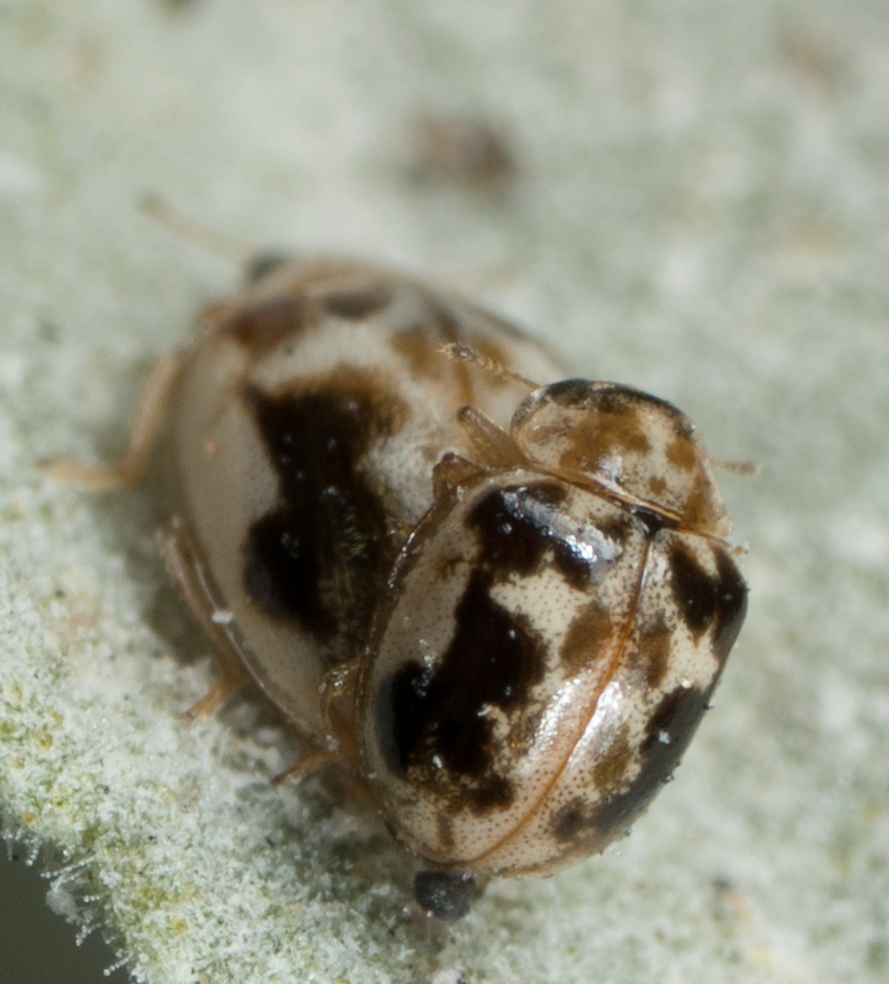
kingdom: Animalia
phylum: Arthropoda
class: Insecta
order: Coleoptera
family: Coccinellidae
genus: Psyllobora
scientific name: Psyllobora renifer
